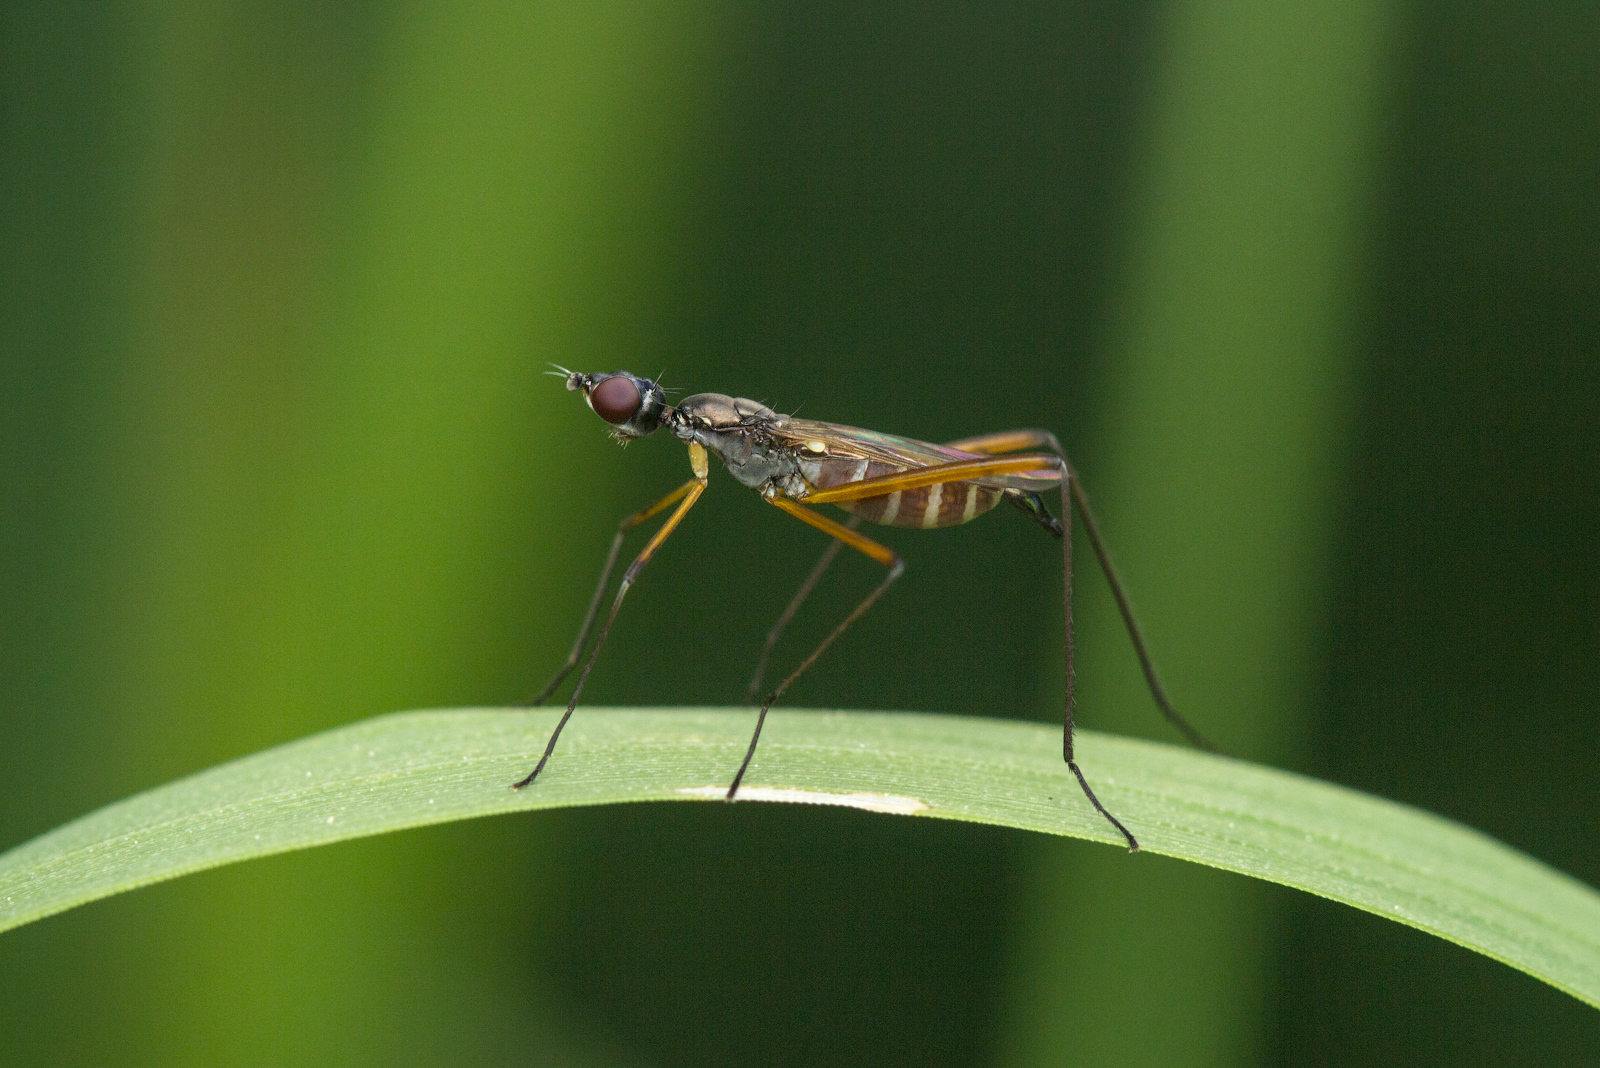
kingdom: Animalia
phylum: Arthropoda
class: Insecta
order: Diptera
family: Micropezidae
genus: Micropeza
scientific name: Micropeza corrigiolata
